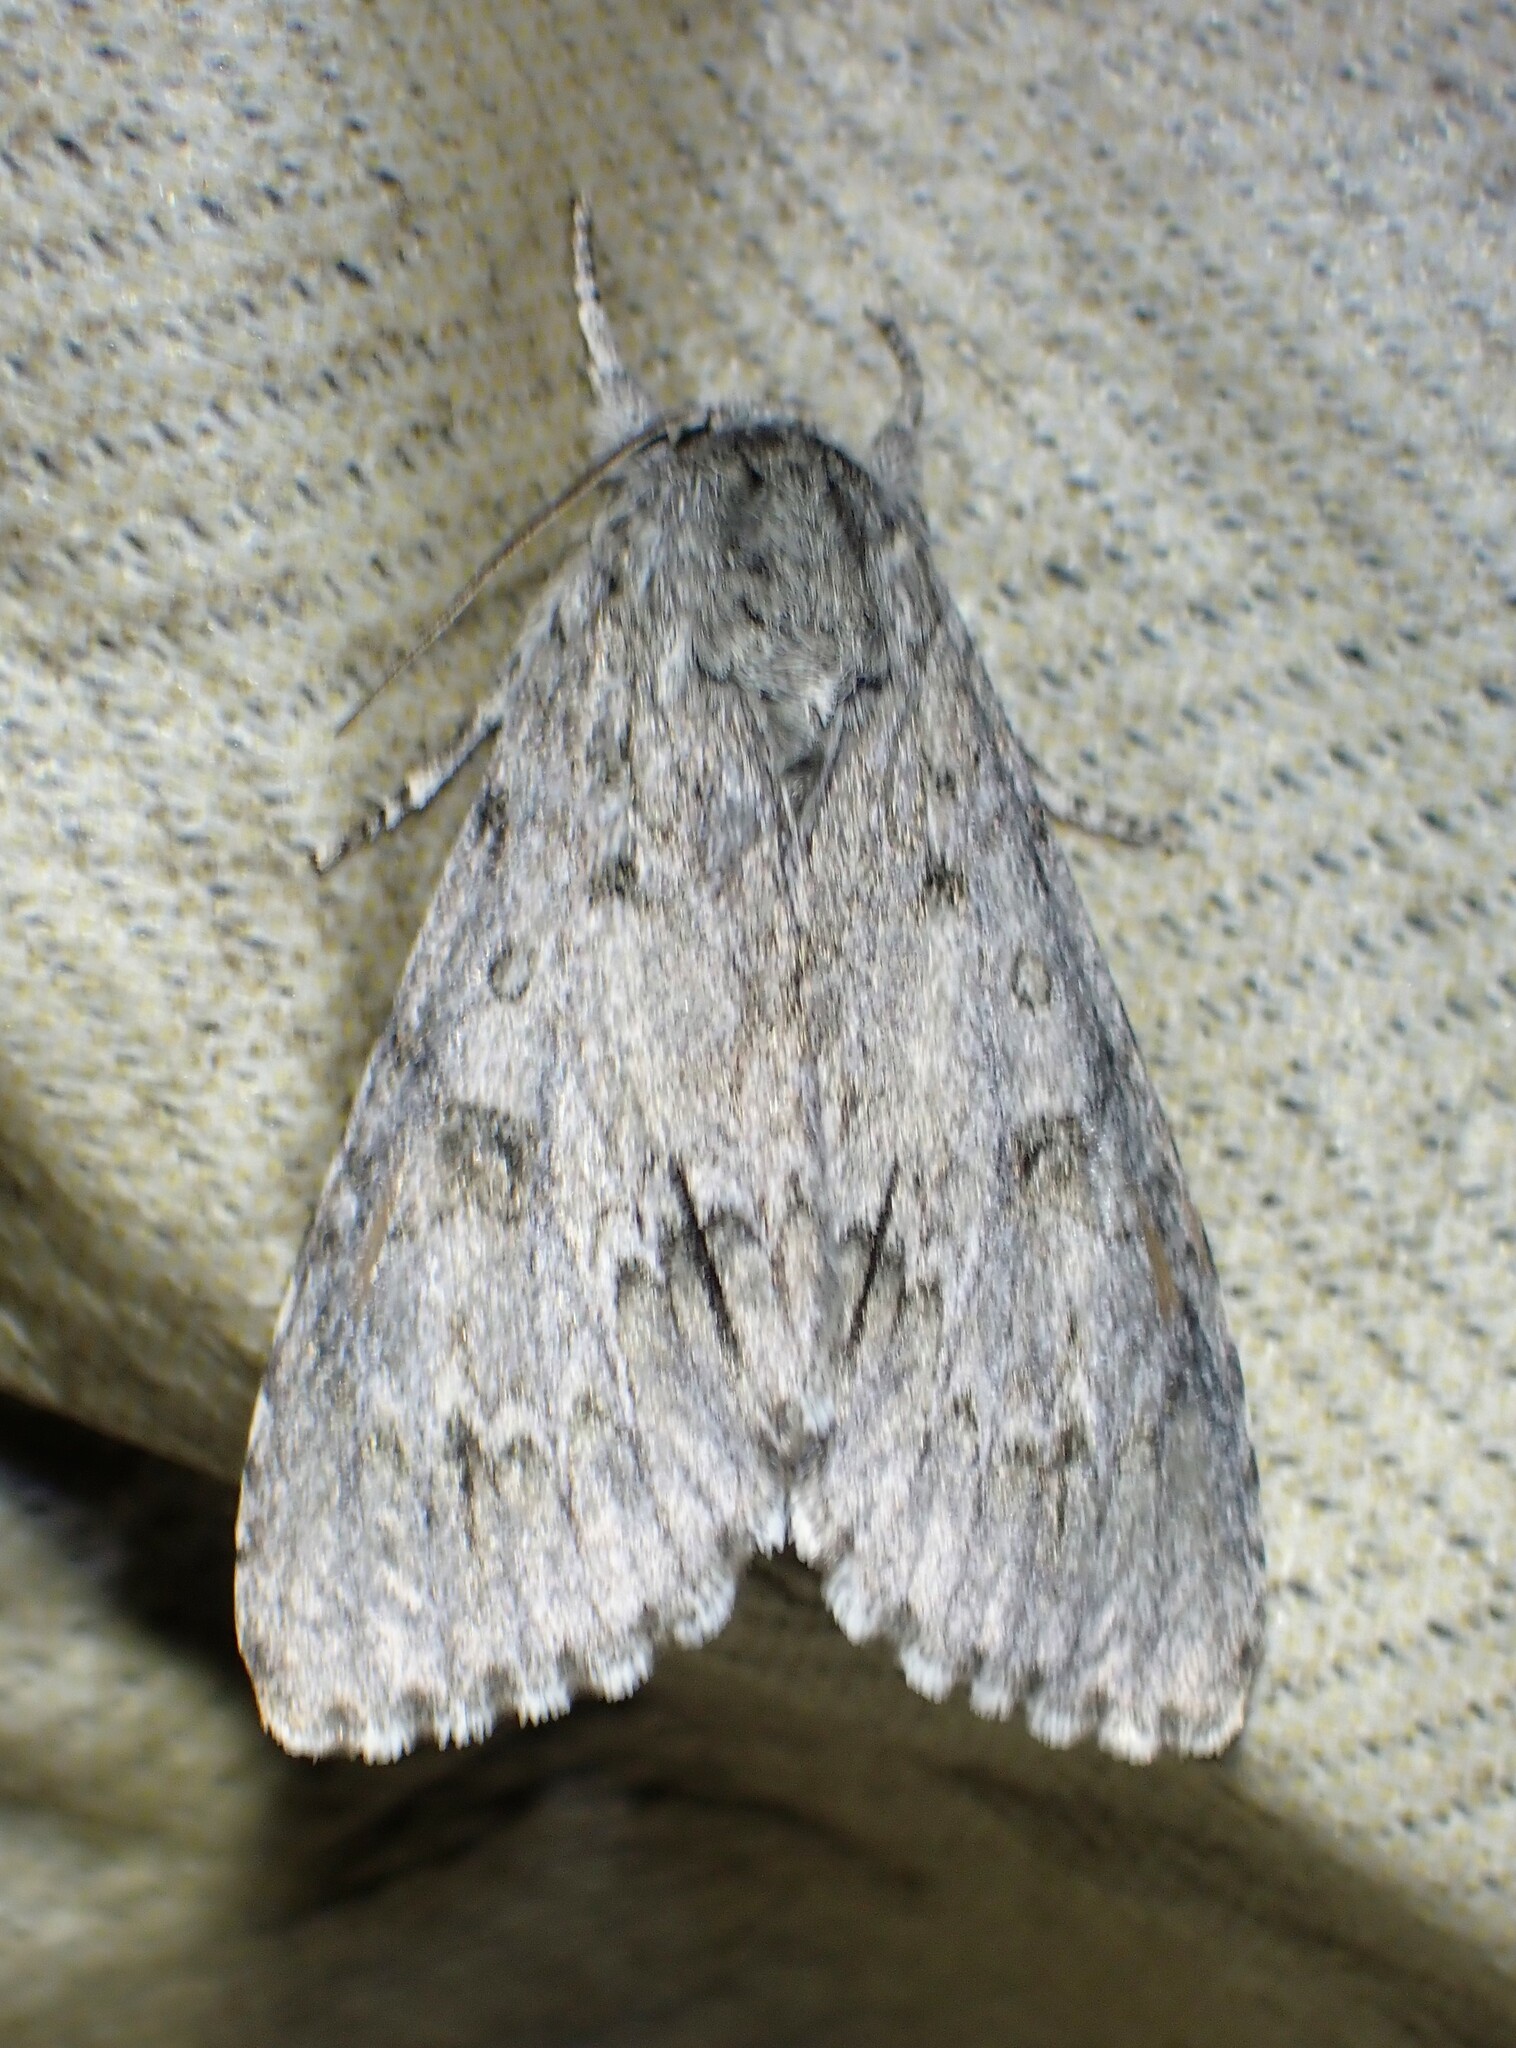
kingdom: Animalia
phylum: Arthropoda
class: Insecta
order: Lepidoptera
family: Noctuidae
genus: Acronicta
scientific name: Acronicta insita
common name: Large gray dagger
